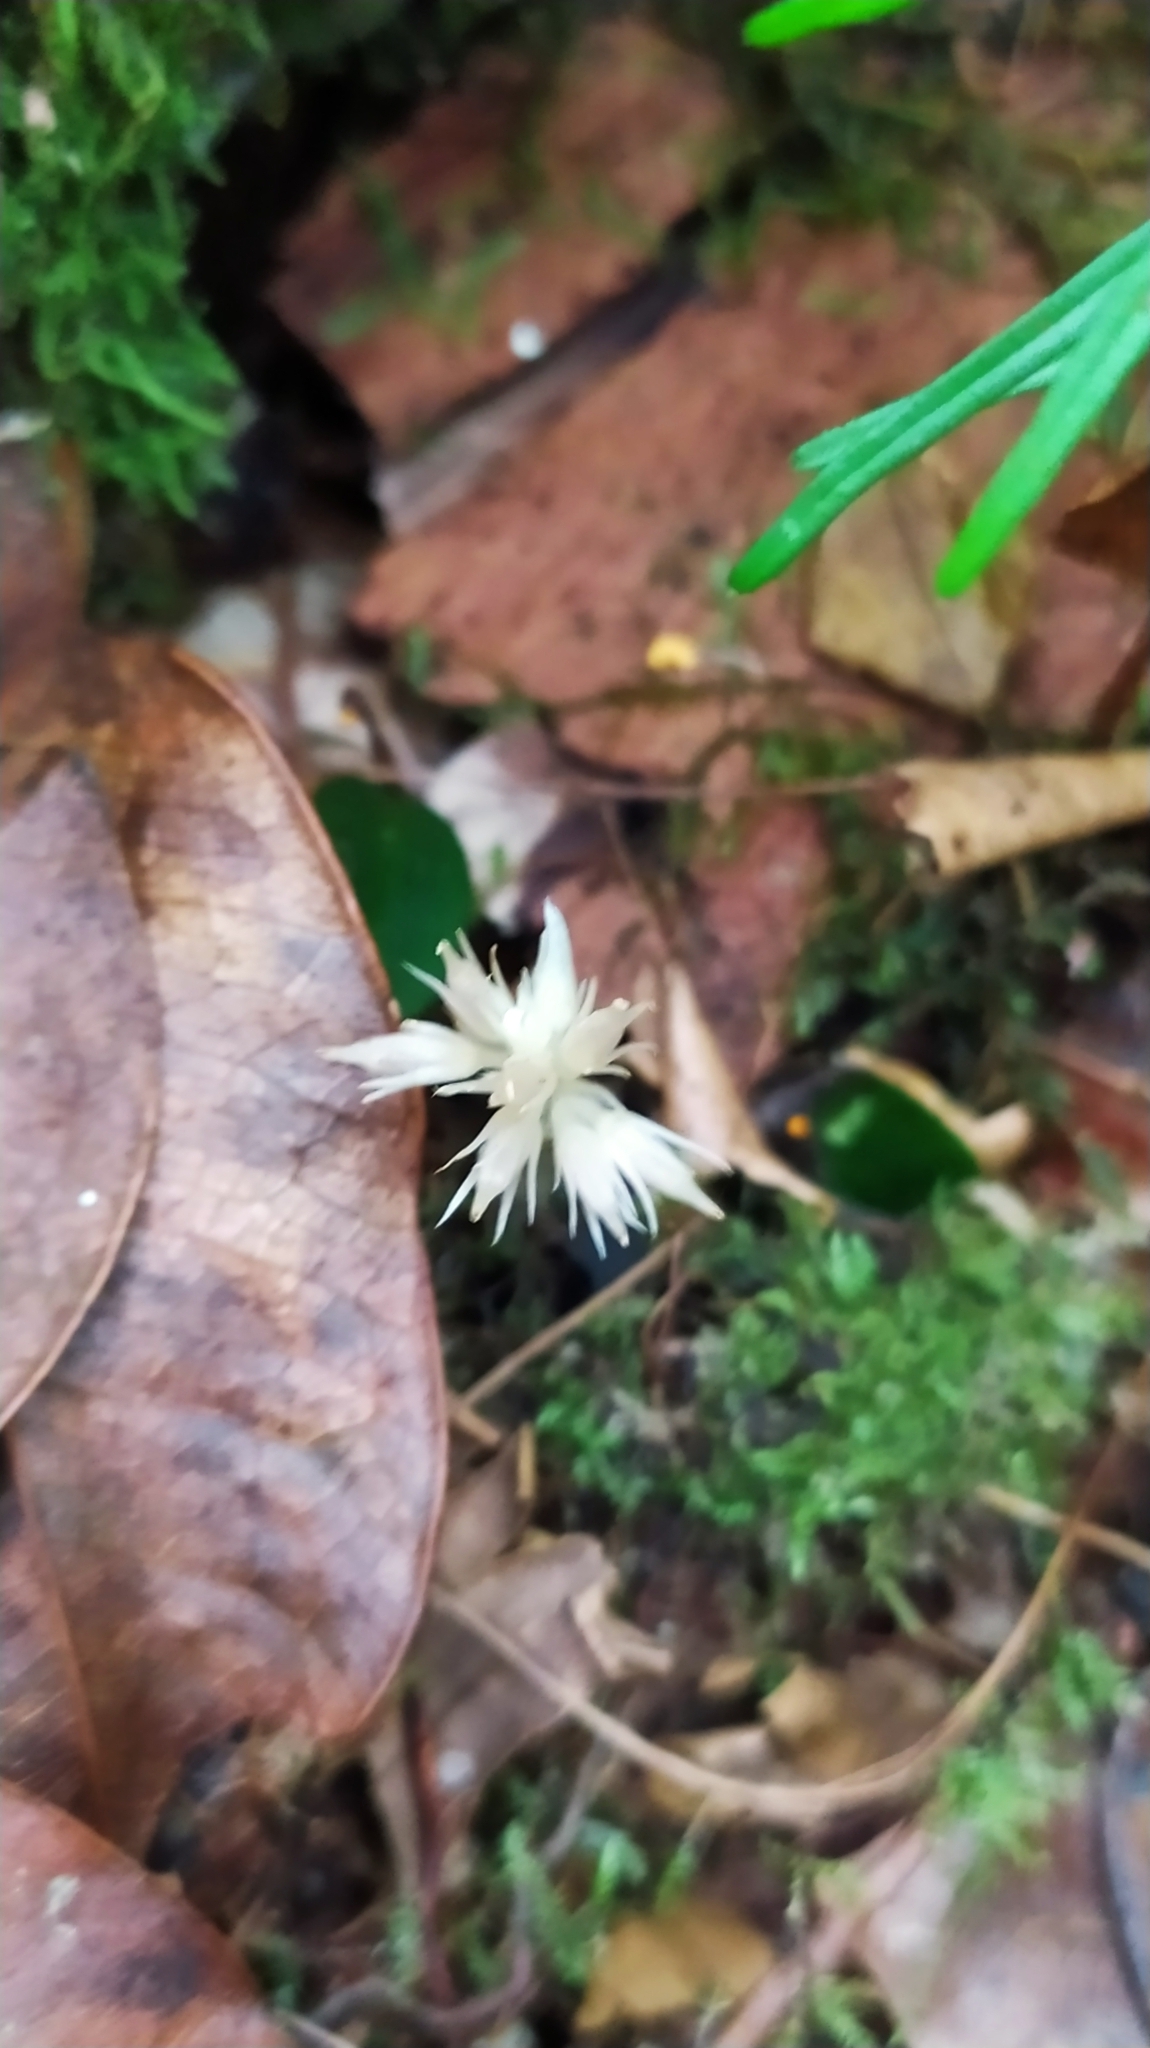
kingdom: Plantae
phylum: Tracheophyta
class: Magnoliopsida
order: Gentianales
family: Gentianaceae
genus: Voyriella
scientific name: Voyriella parviflora
